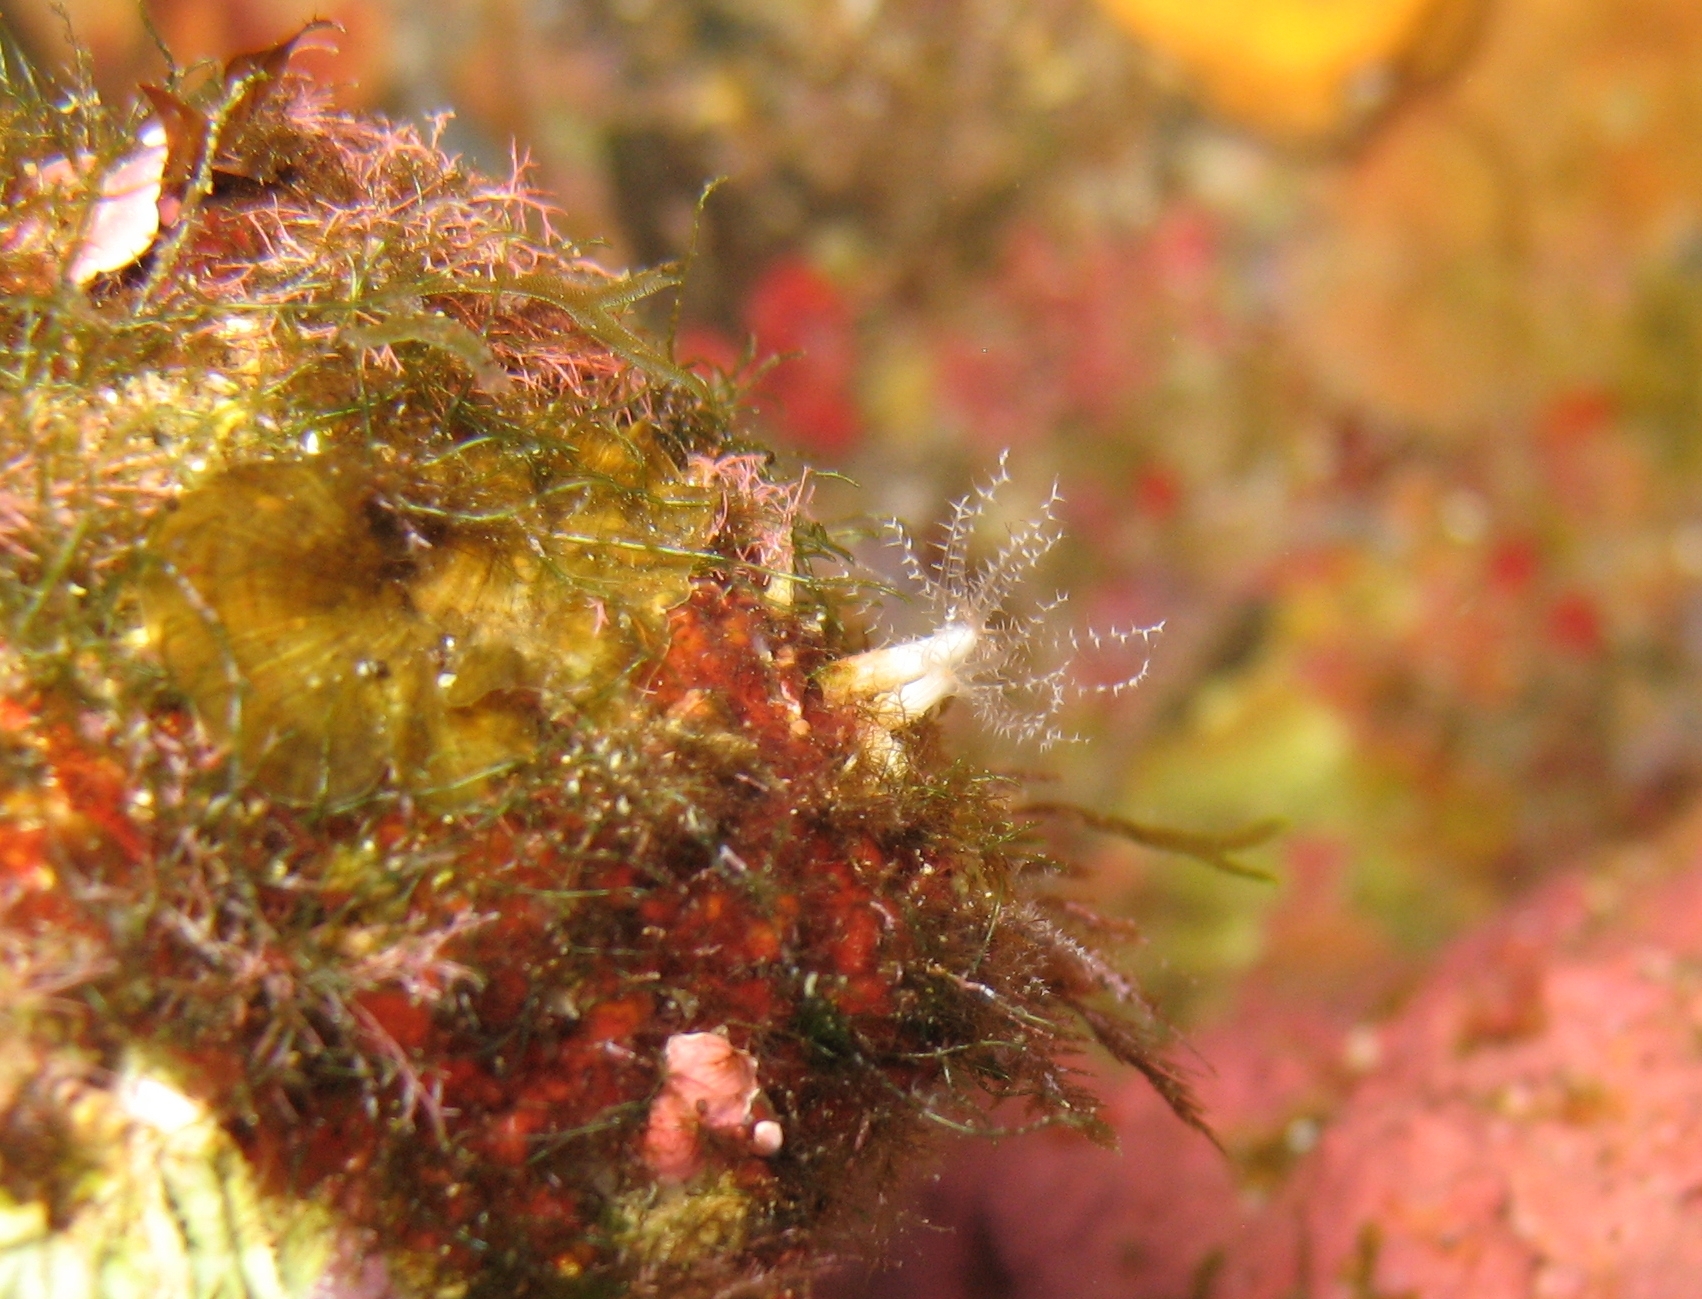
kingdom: Animalia
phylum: Cnidaria
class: Anthozoa
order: Malacalcyonacea
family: Clavulariidae
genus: Clavularia
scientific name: Clavularia crassa
